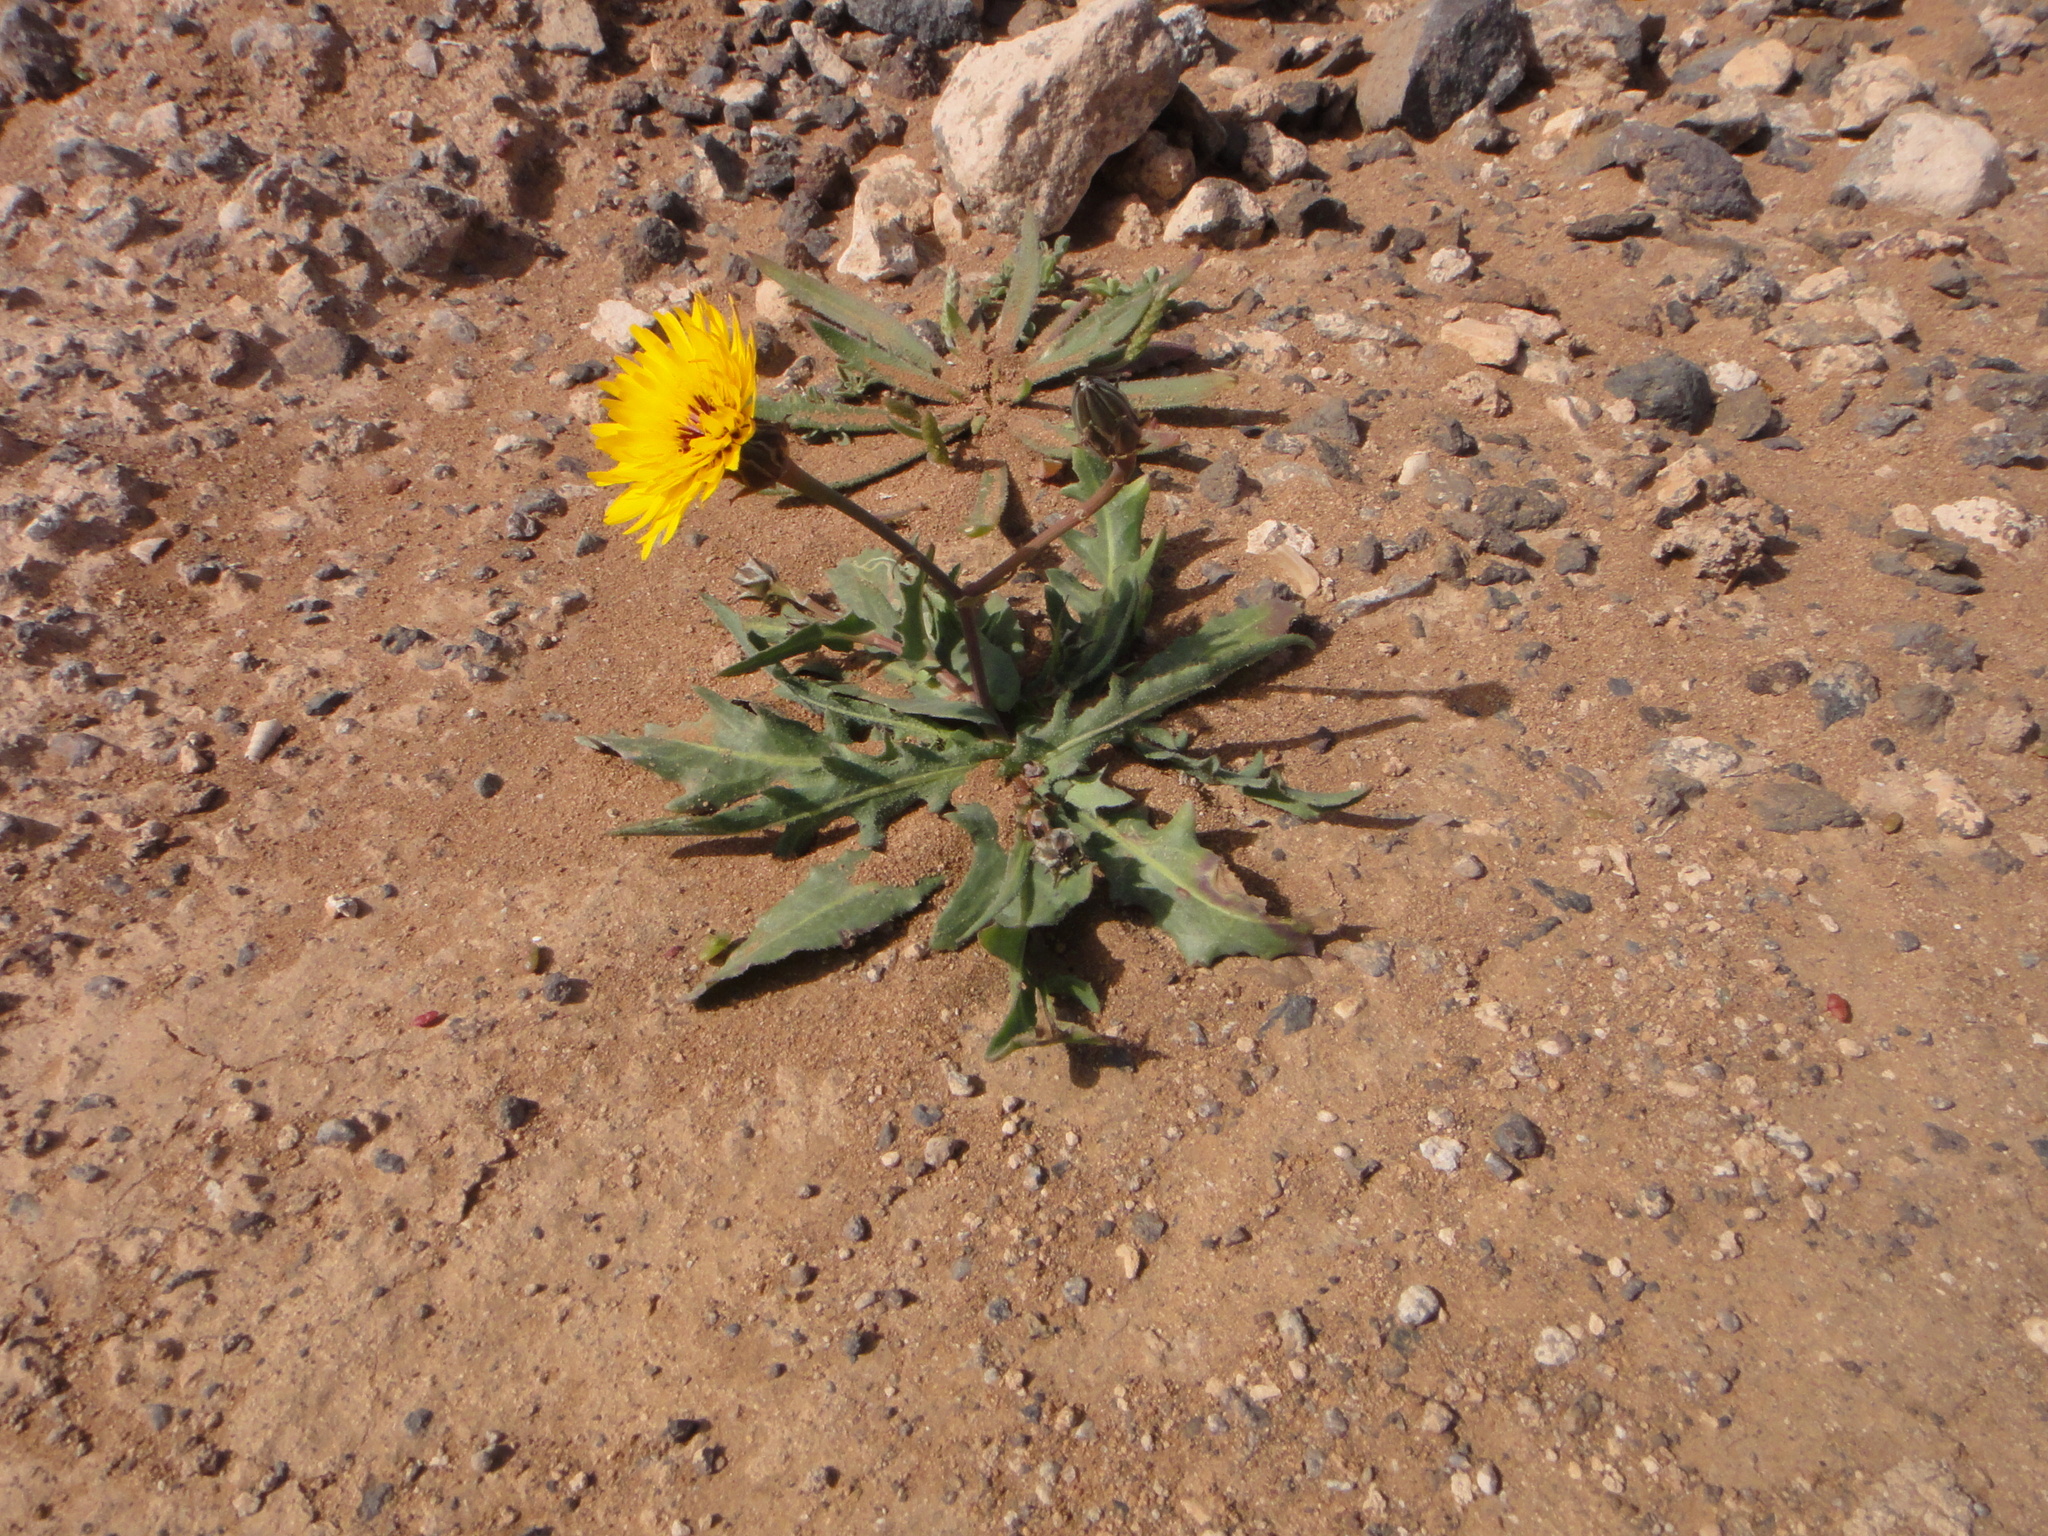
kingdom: Plantae
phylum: Tracheophyta
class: Magnoliopsida
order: Asterales
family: Asteraceae
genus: Reichardia
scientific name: Reichardia tingitana
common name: Reichardia
